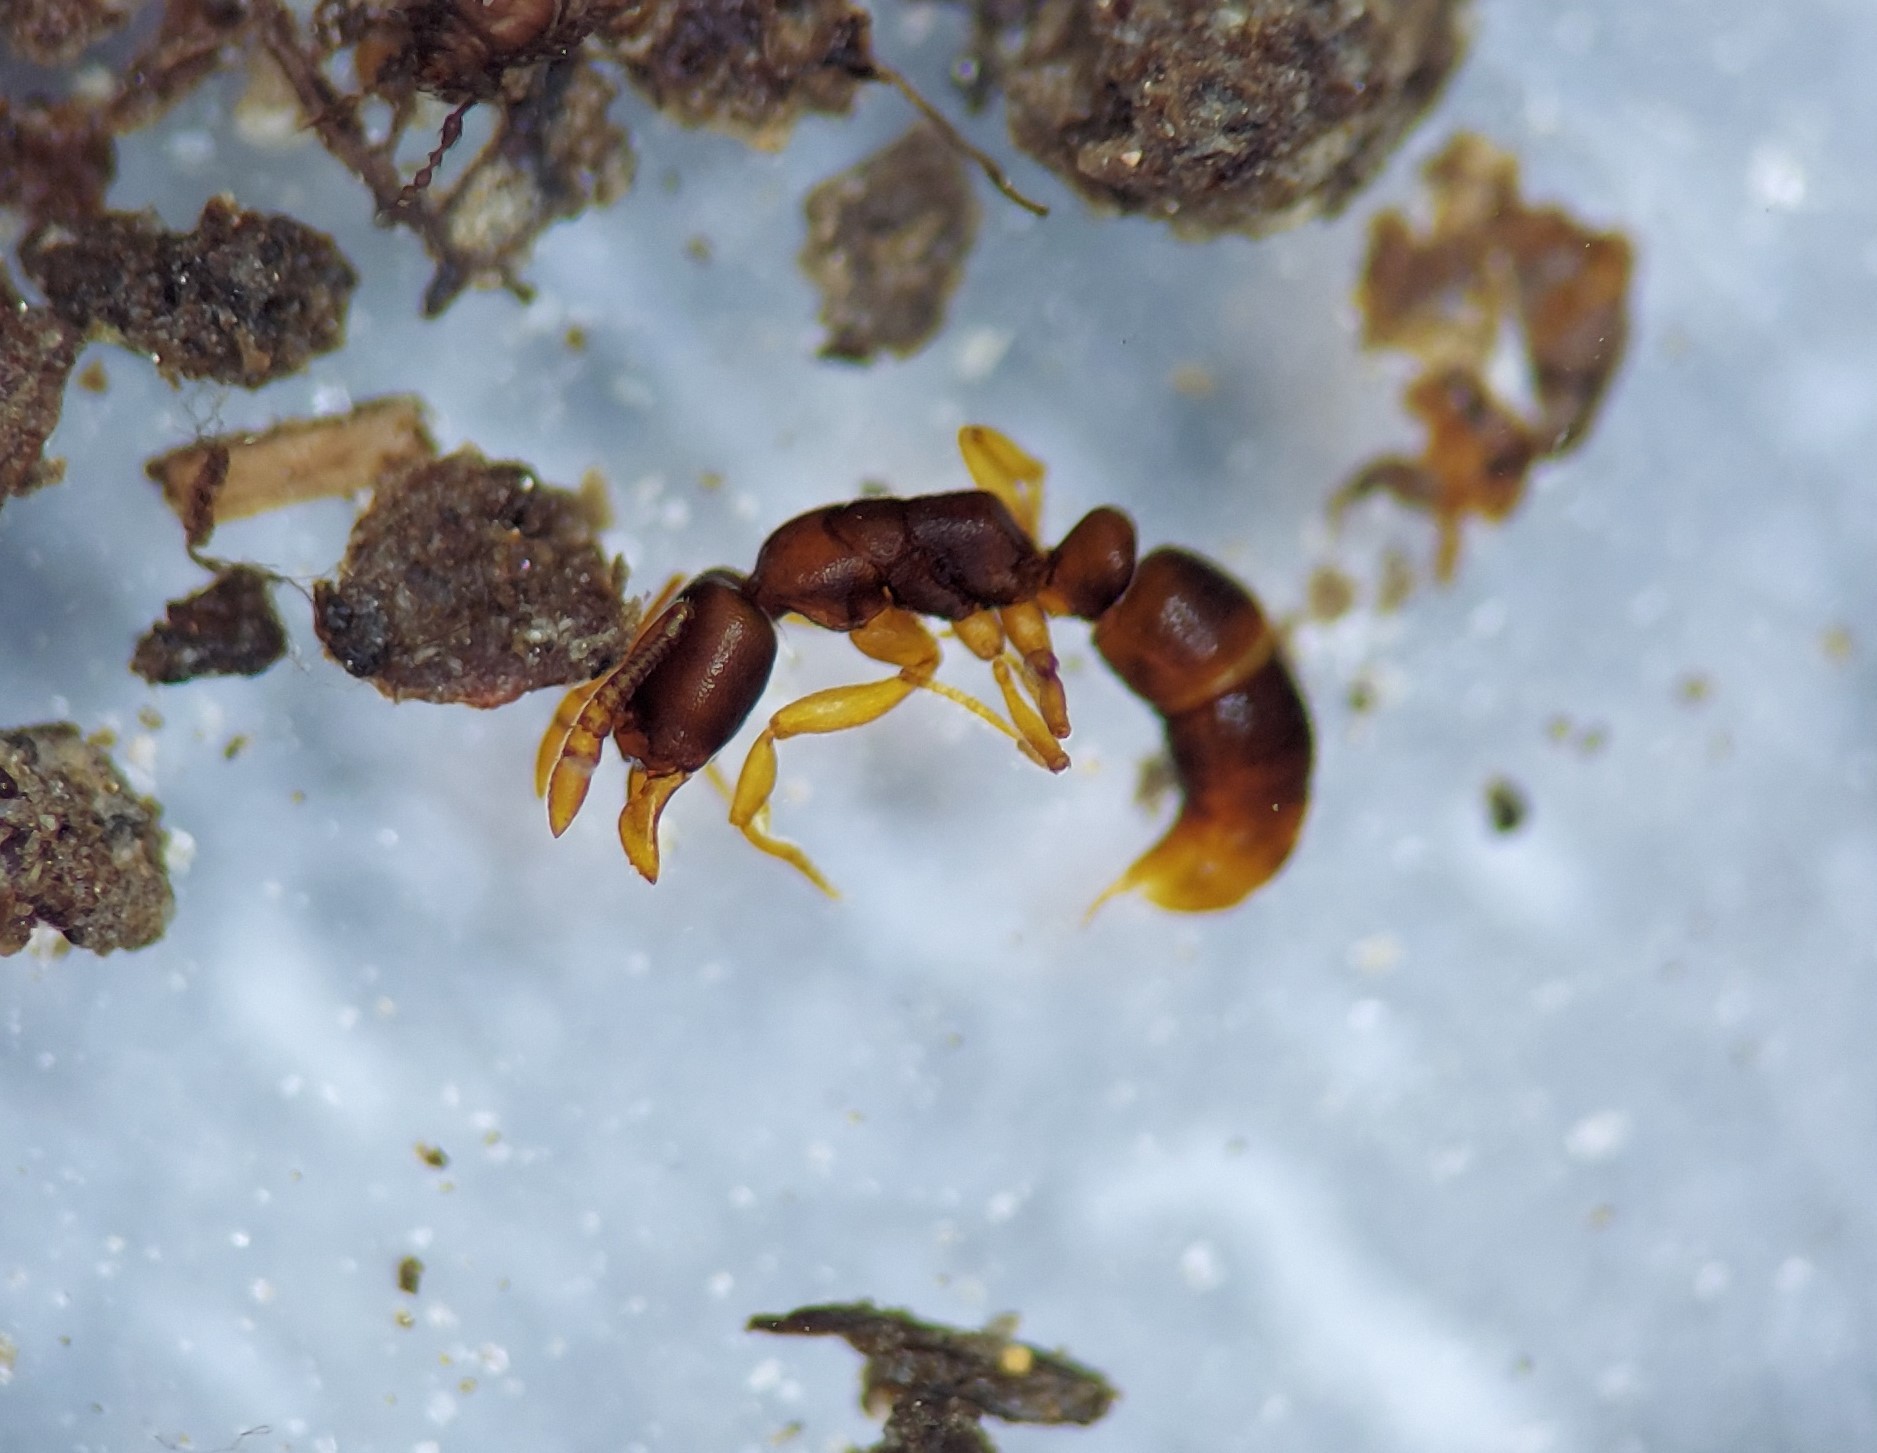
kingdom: Animalia
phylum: Arthropoda
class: Insecta
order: Hymenoptera
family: Formicidae
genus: Hypoponera
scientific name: Hypoponera opacior
